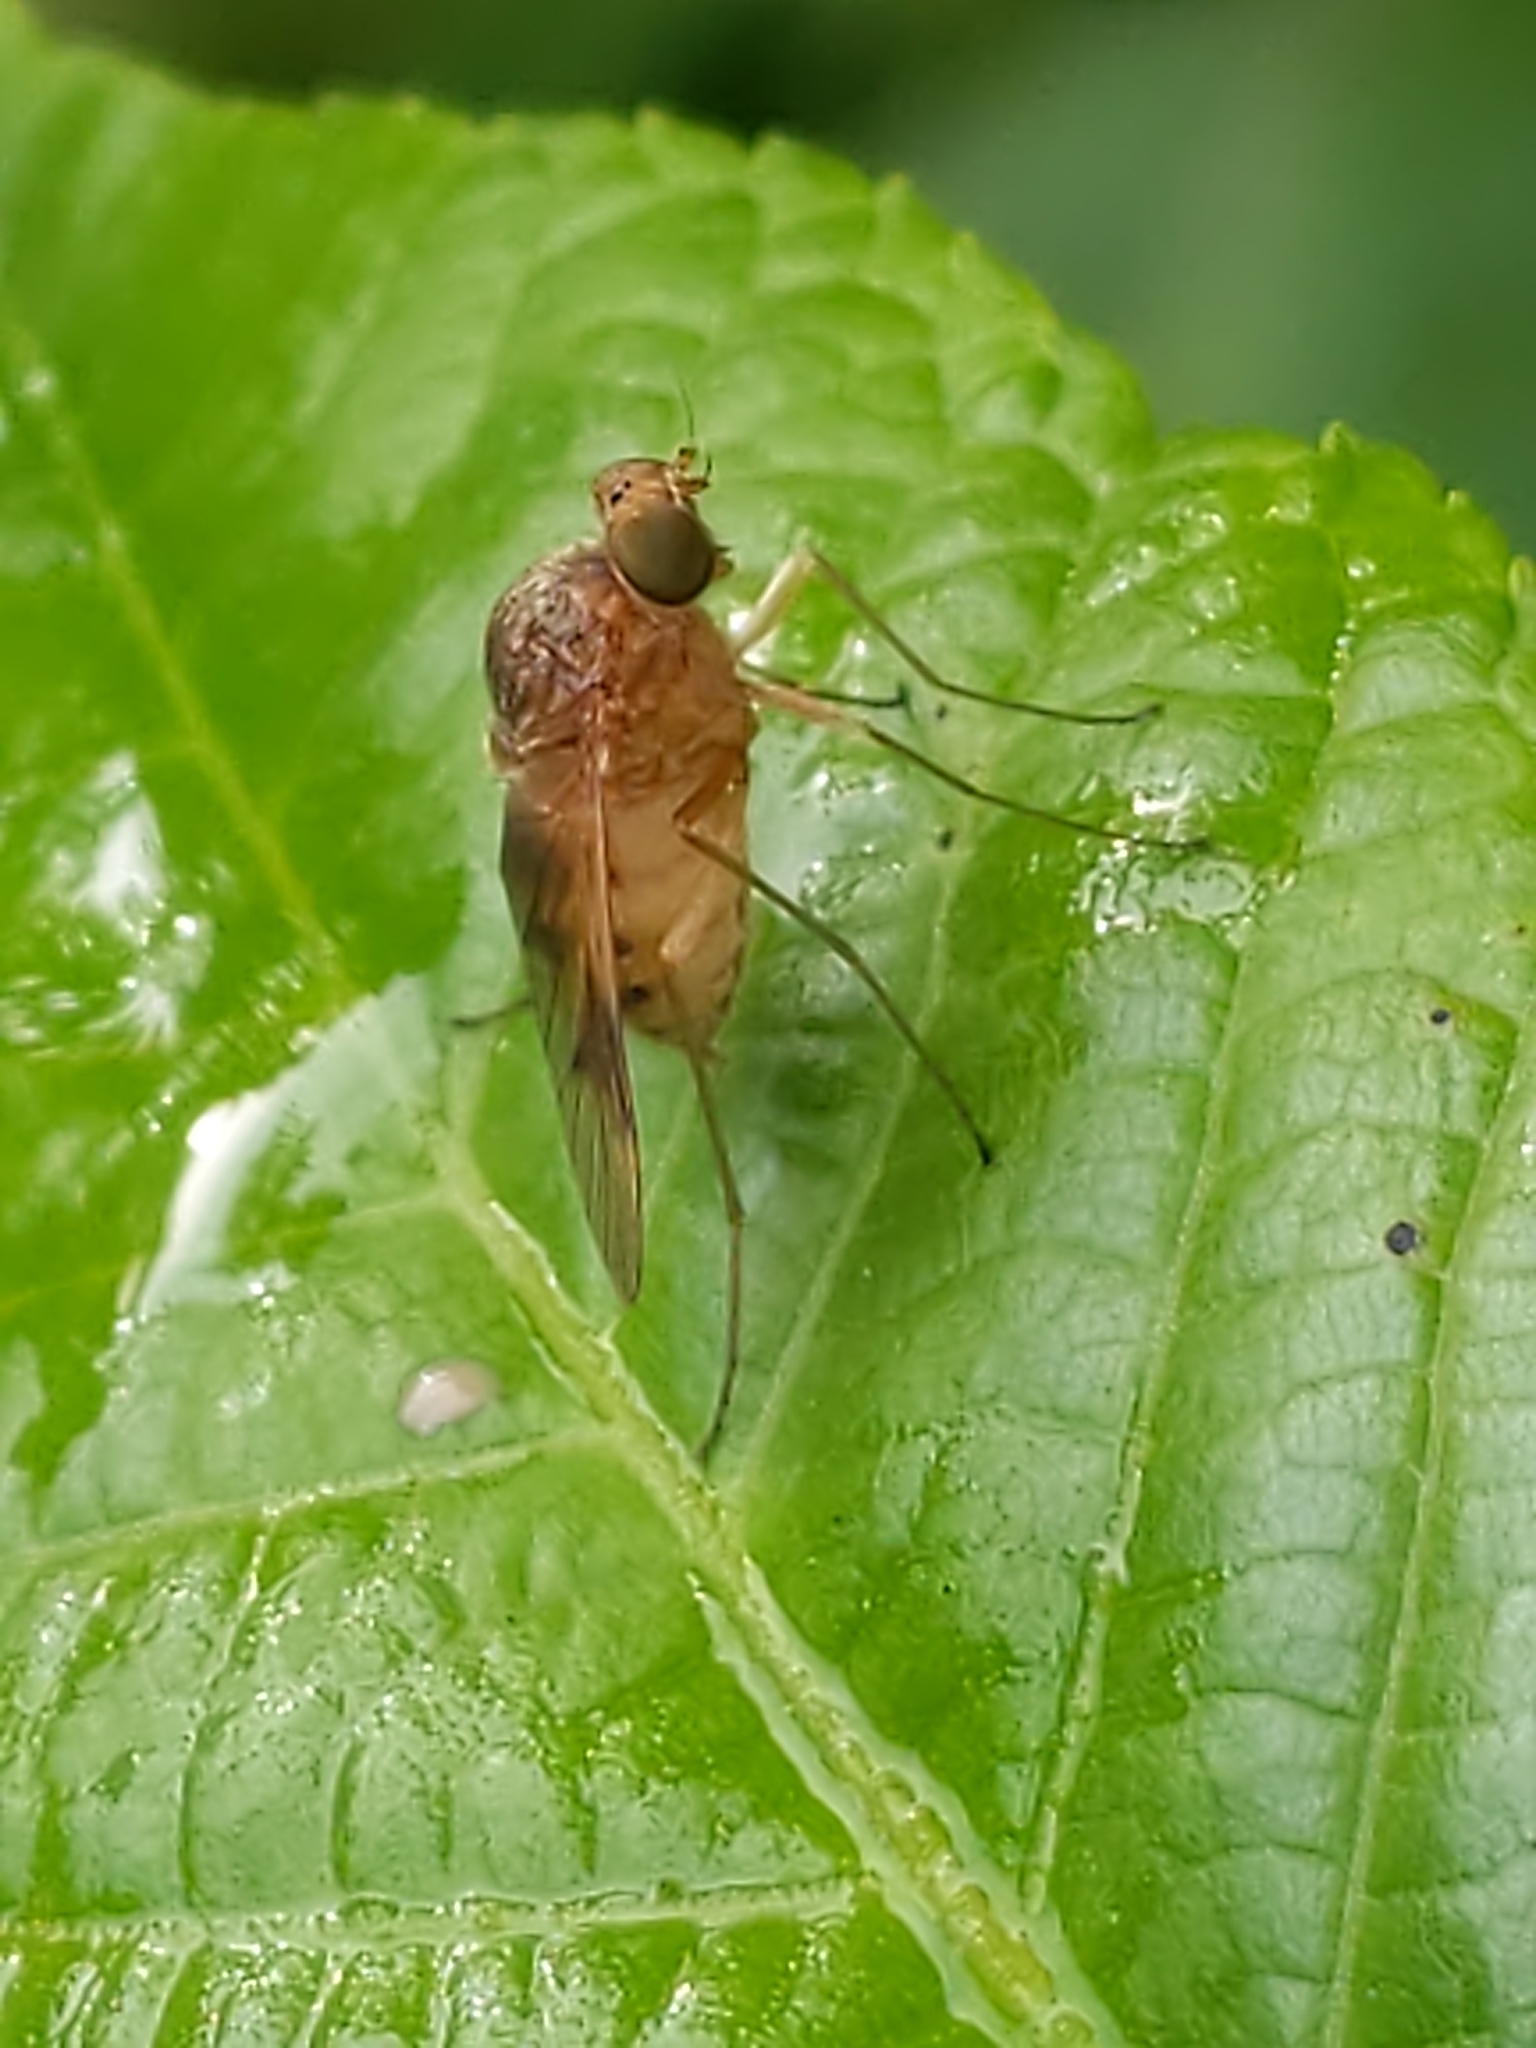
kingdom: Animalia
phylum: Arthropoda
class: Insecta
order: Diptera
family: Rhagionidae
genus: Chrysopilus
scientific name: Chrysopilus quadratus
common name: Quadrate snipe fly
